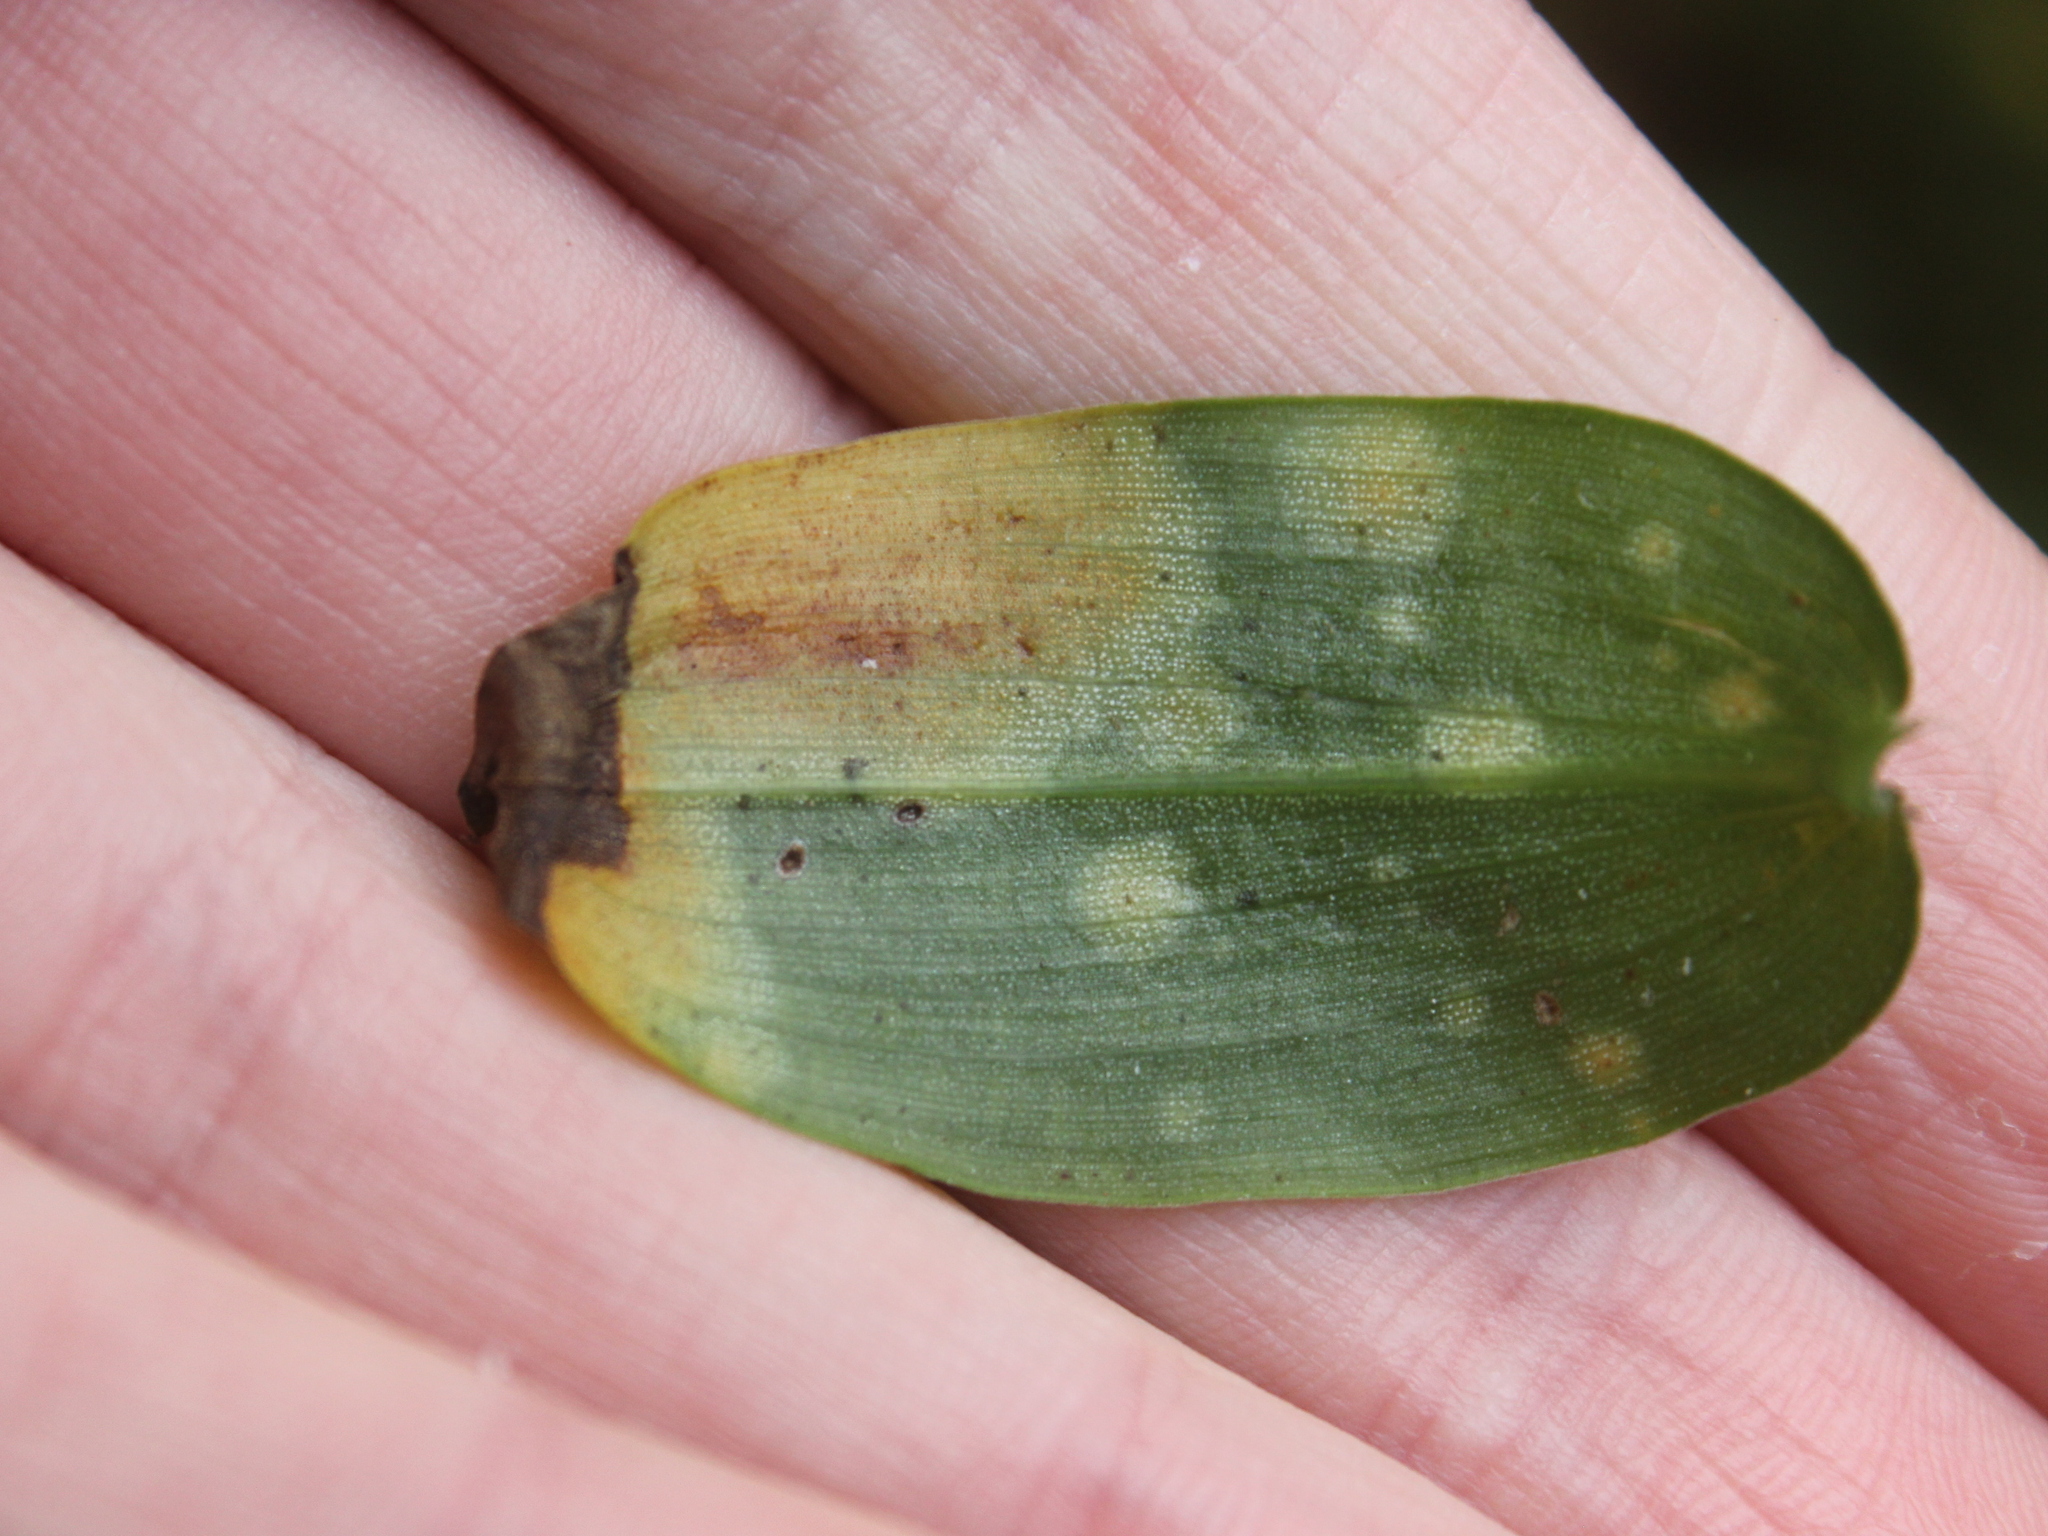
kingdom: Plantae
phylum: Tracheophyta
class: Liliopsida
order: Commelinales
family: Commelinaceae
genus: Tradescantia
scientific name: Tradescantia fluminensis
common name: Wandering-jew
